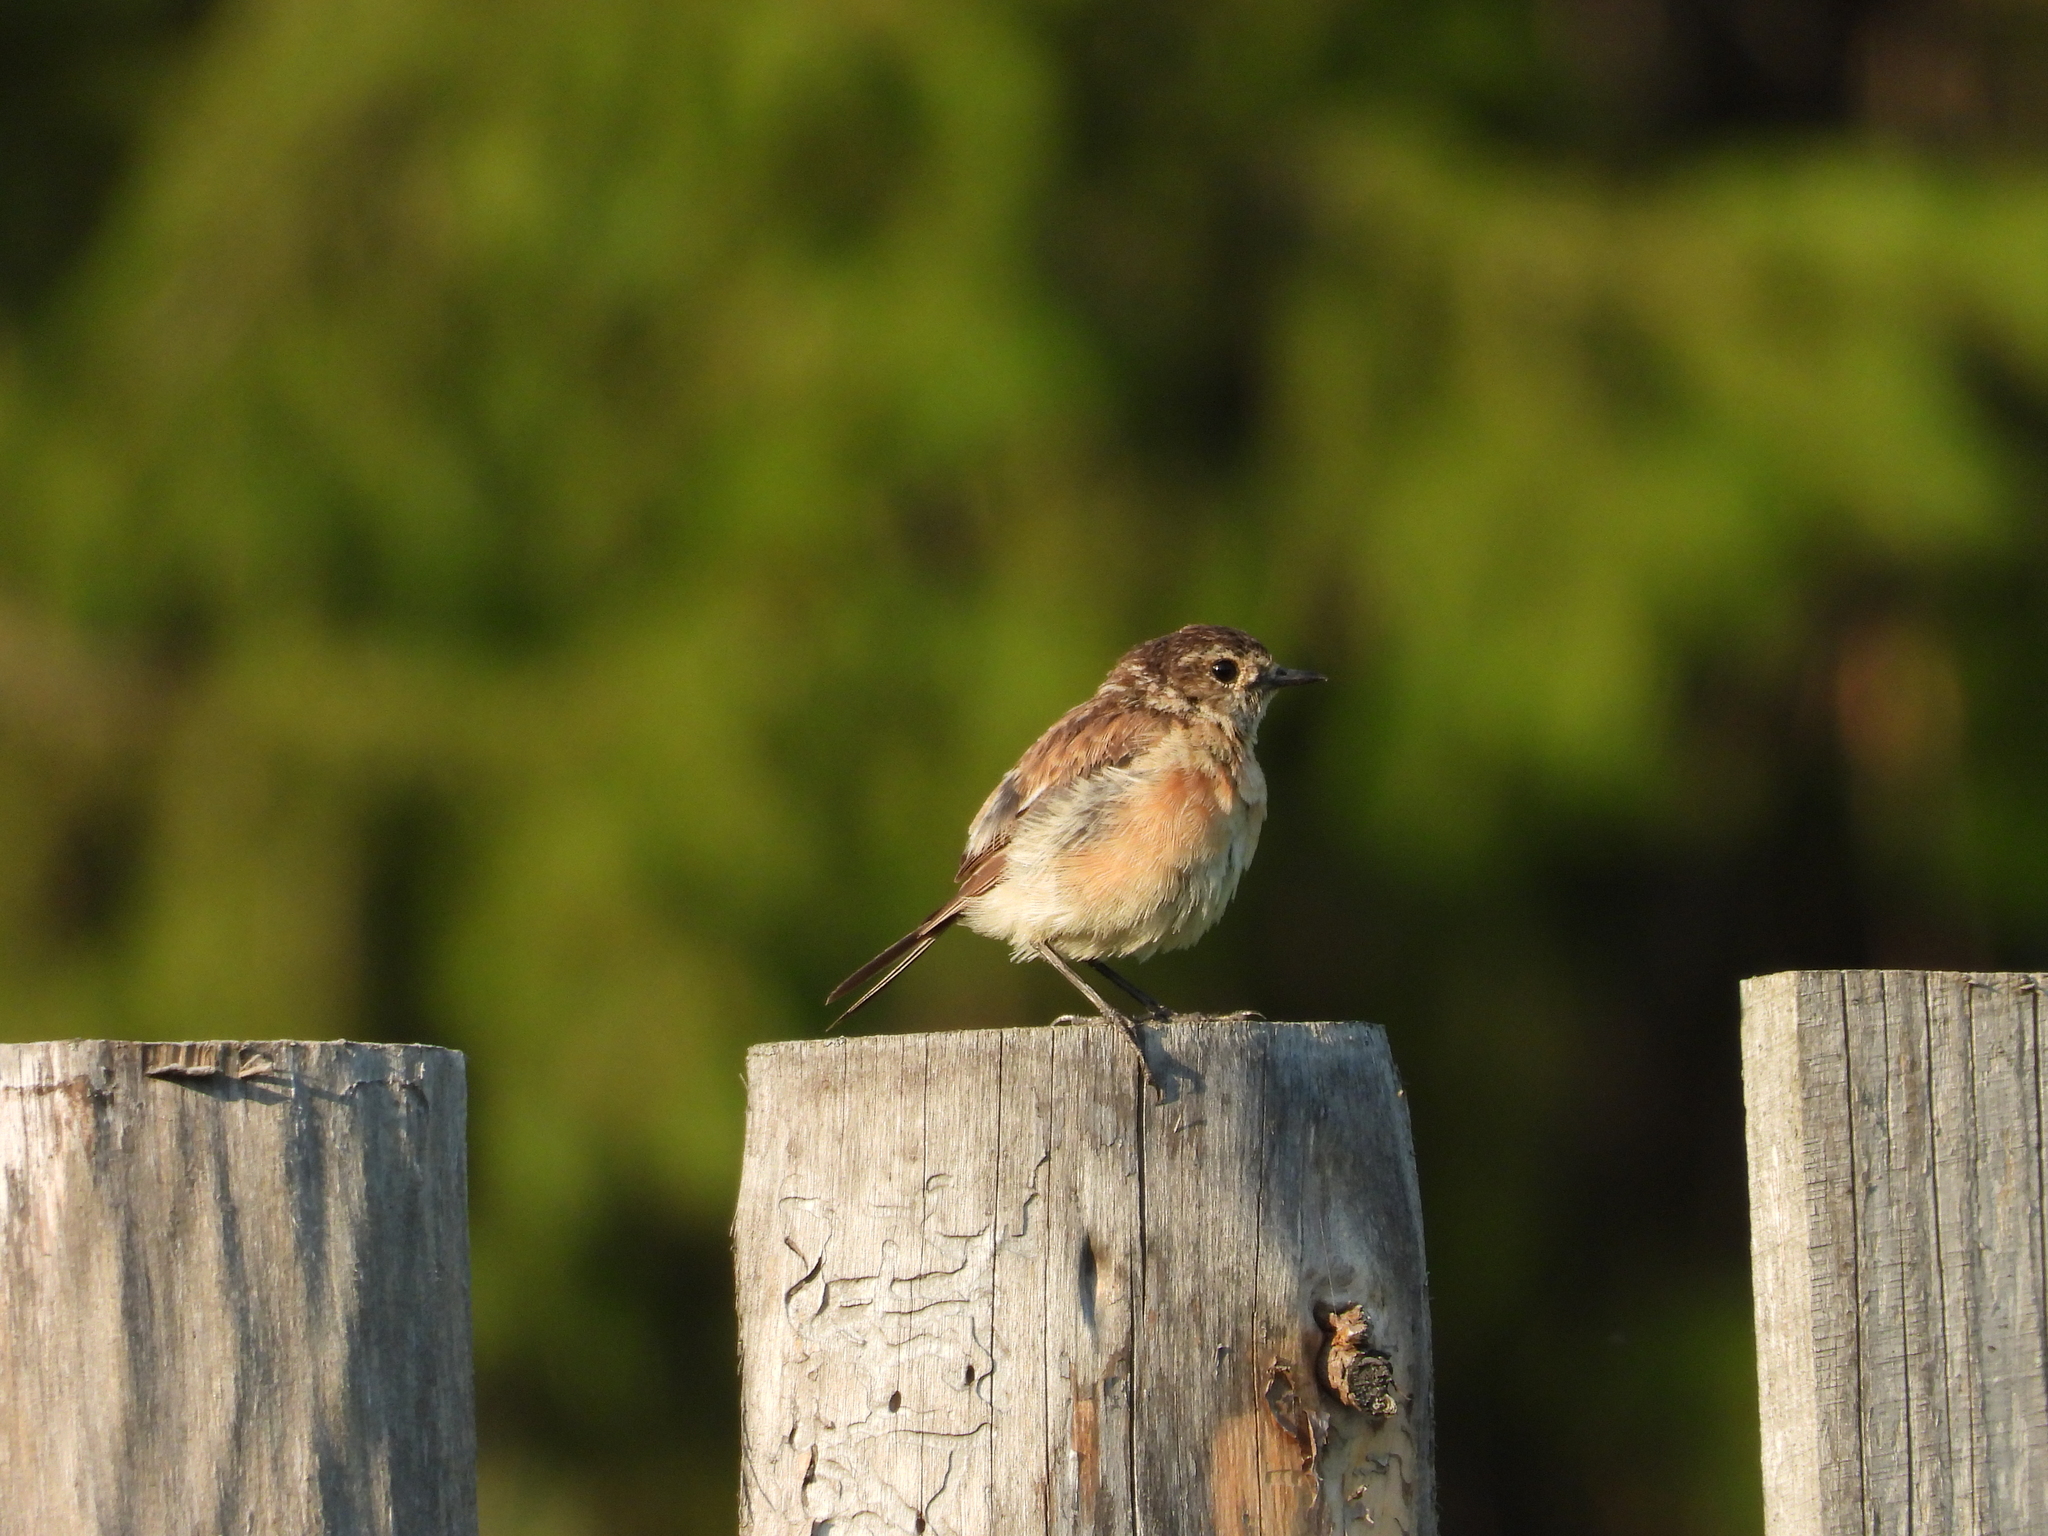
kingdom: Animalia
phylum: Chordata
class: Aves
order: Passeriformes
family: Muscicapidae
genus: Saxicola
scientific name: Saxicola maurus
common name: Siberian stonechat
